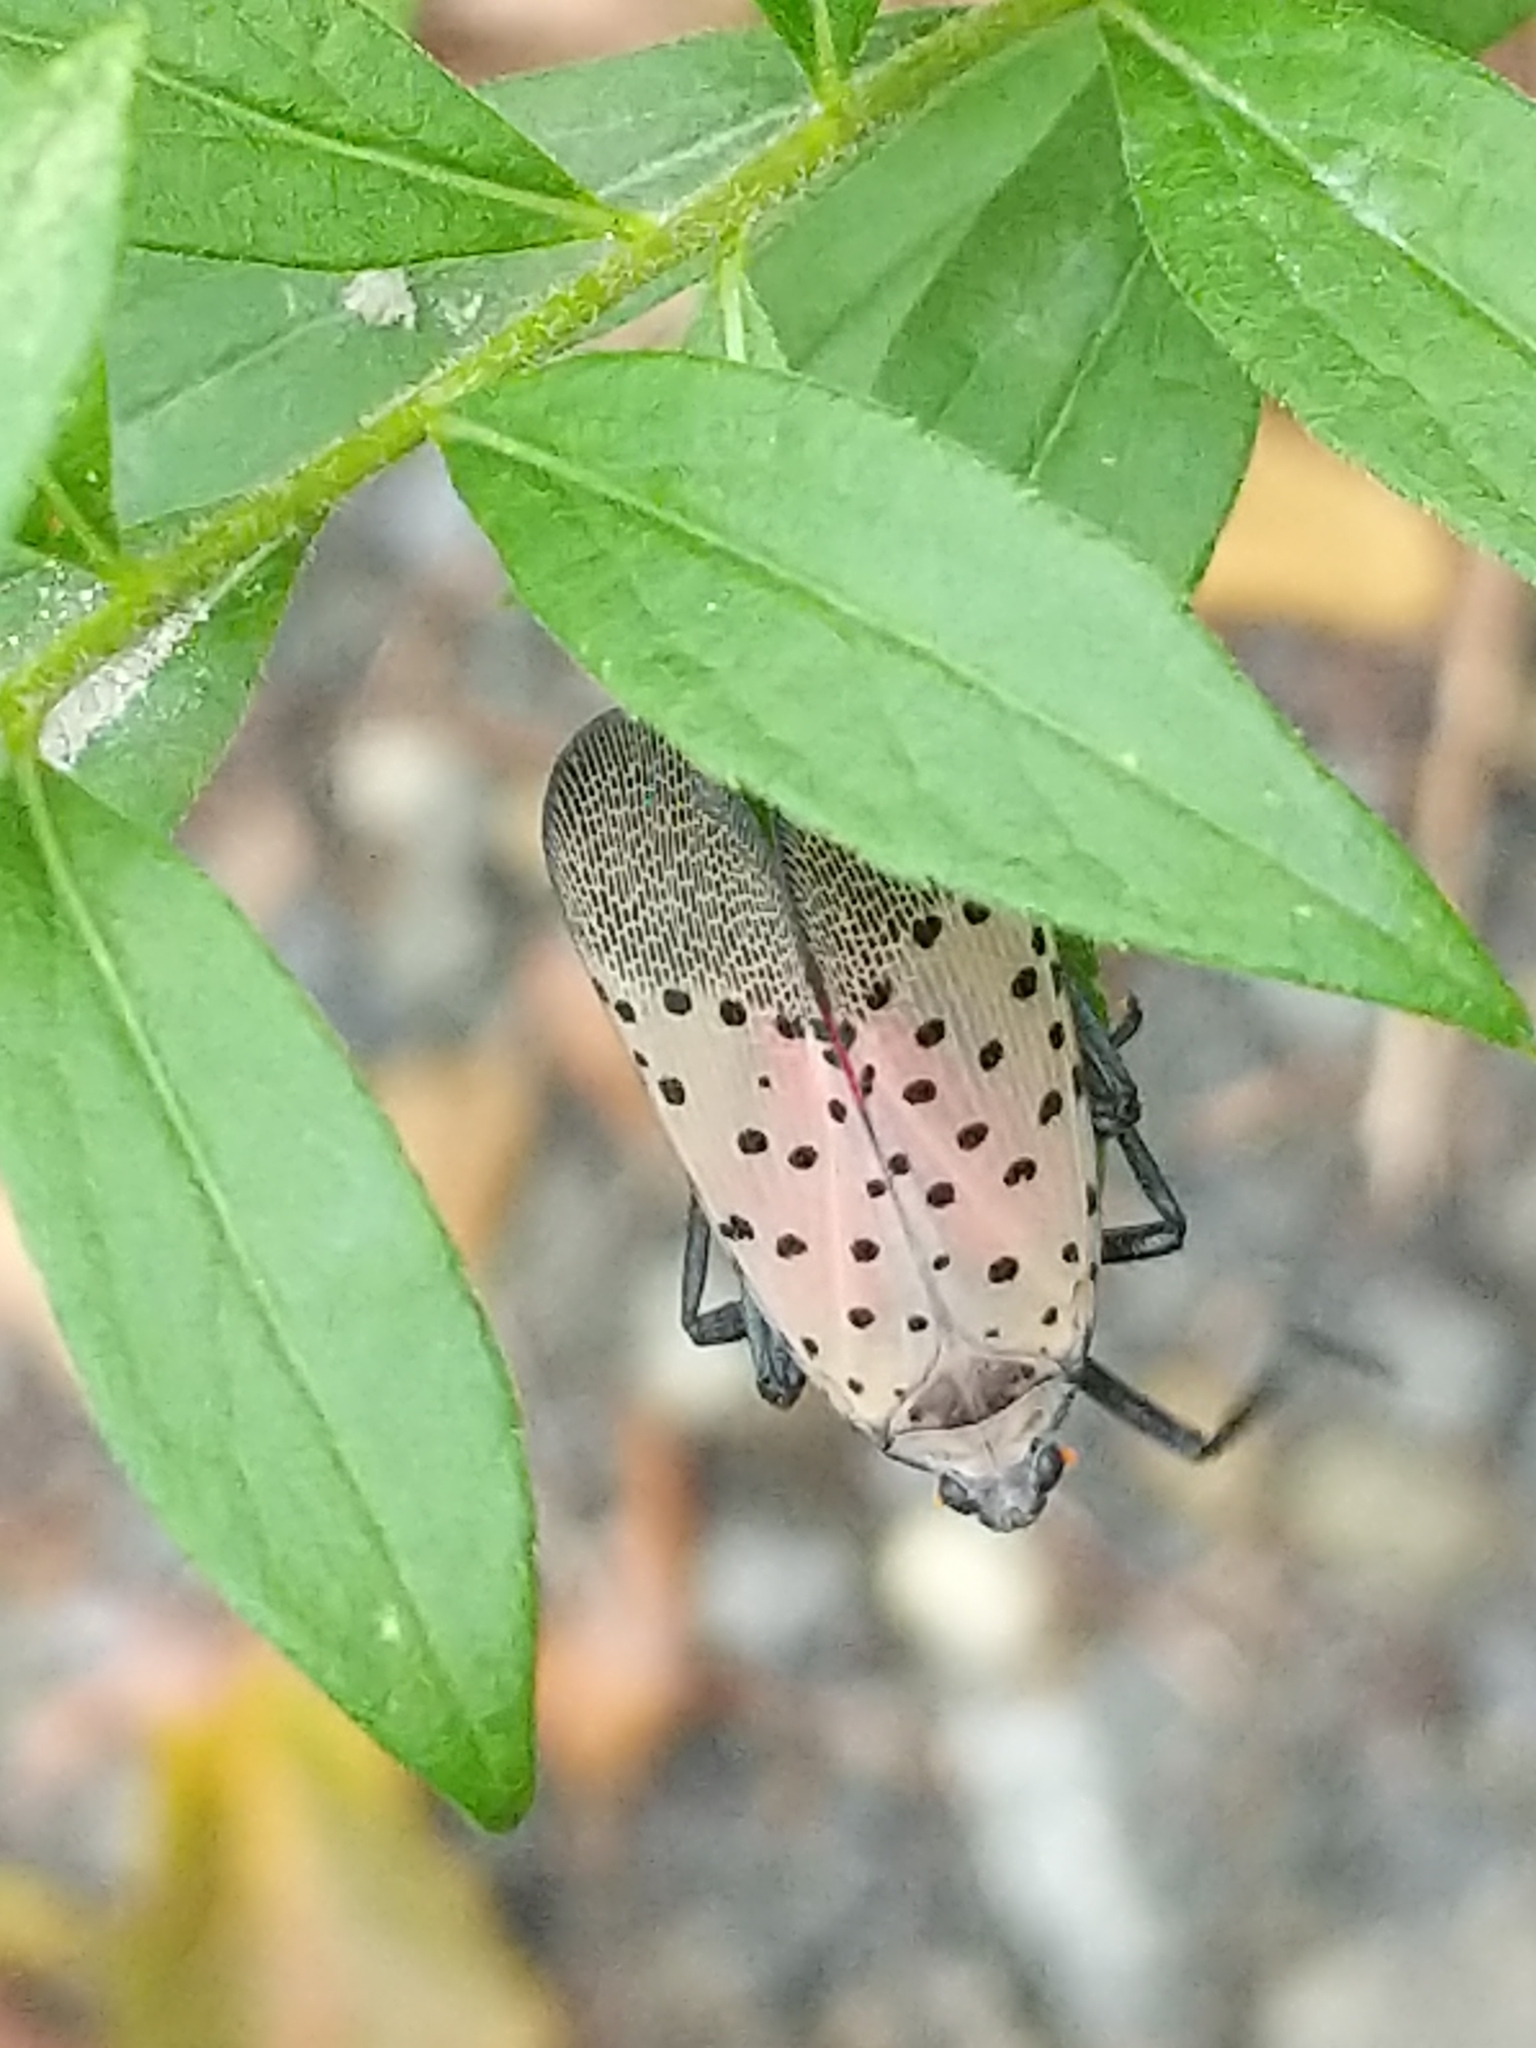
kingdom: Animalia
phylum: Arthropoda
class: Insecta
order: Hemiptera
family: Fulgoridae
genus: Lycorma
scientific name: Lycorma delicatula
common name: Spotted lanternfly
